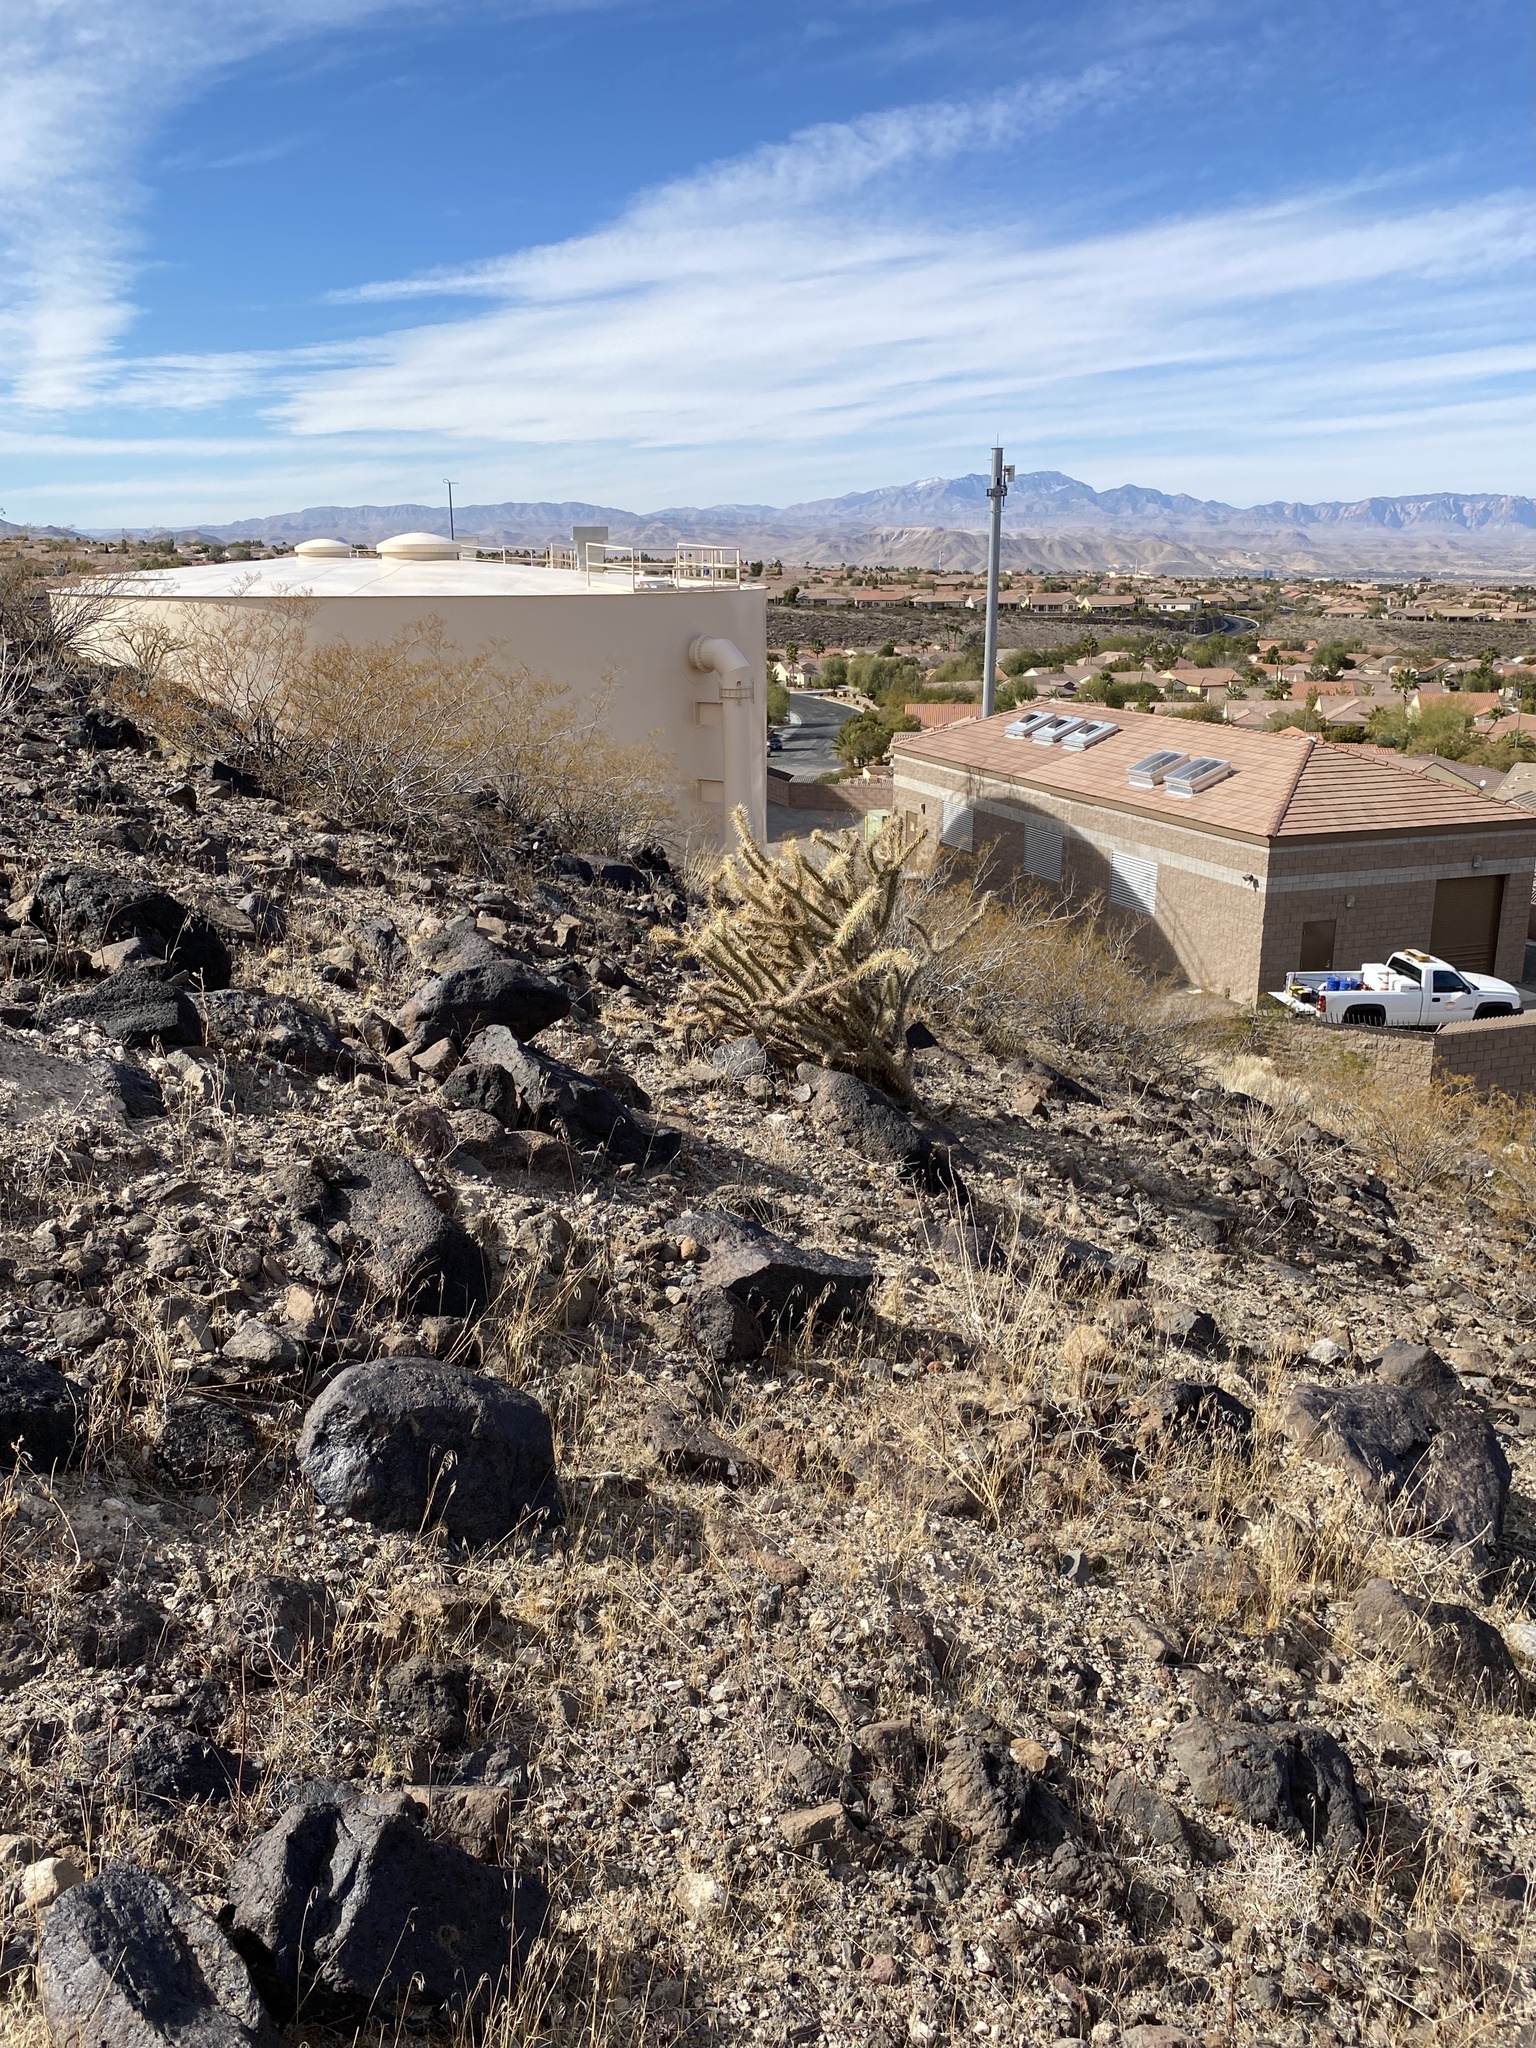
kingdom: Plantae
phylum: Tracheophyta
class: Magnoliopsida
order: Caryophyllales
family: Cactaceae
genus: Cylindropuntia
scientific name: Cylindropuntia acanthocarpa
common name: Buckhorn cholla
